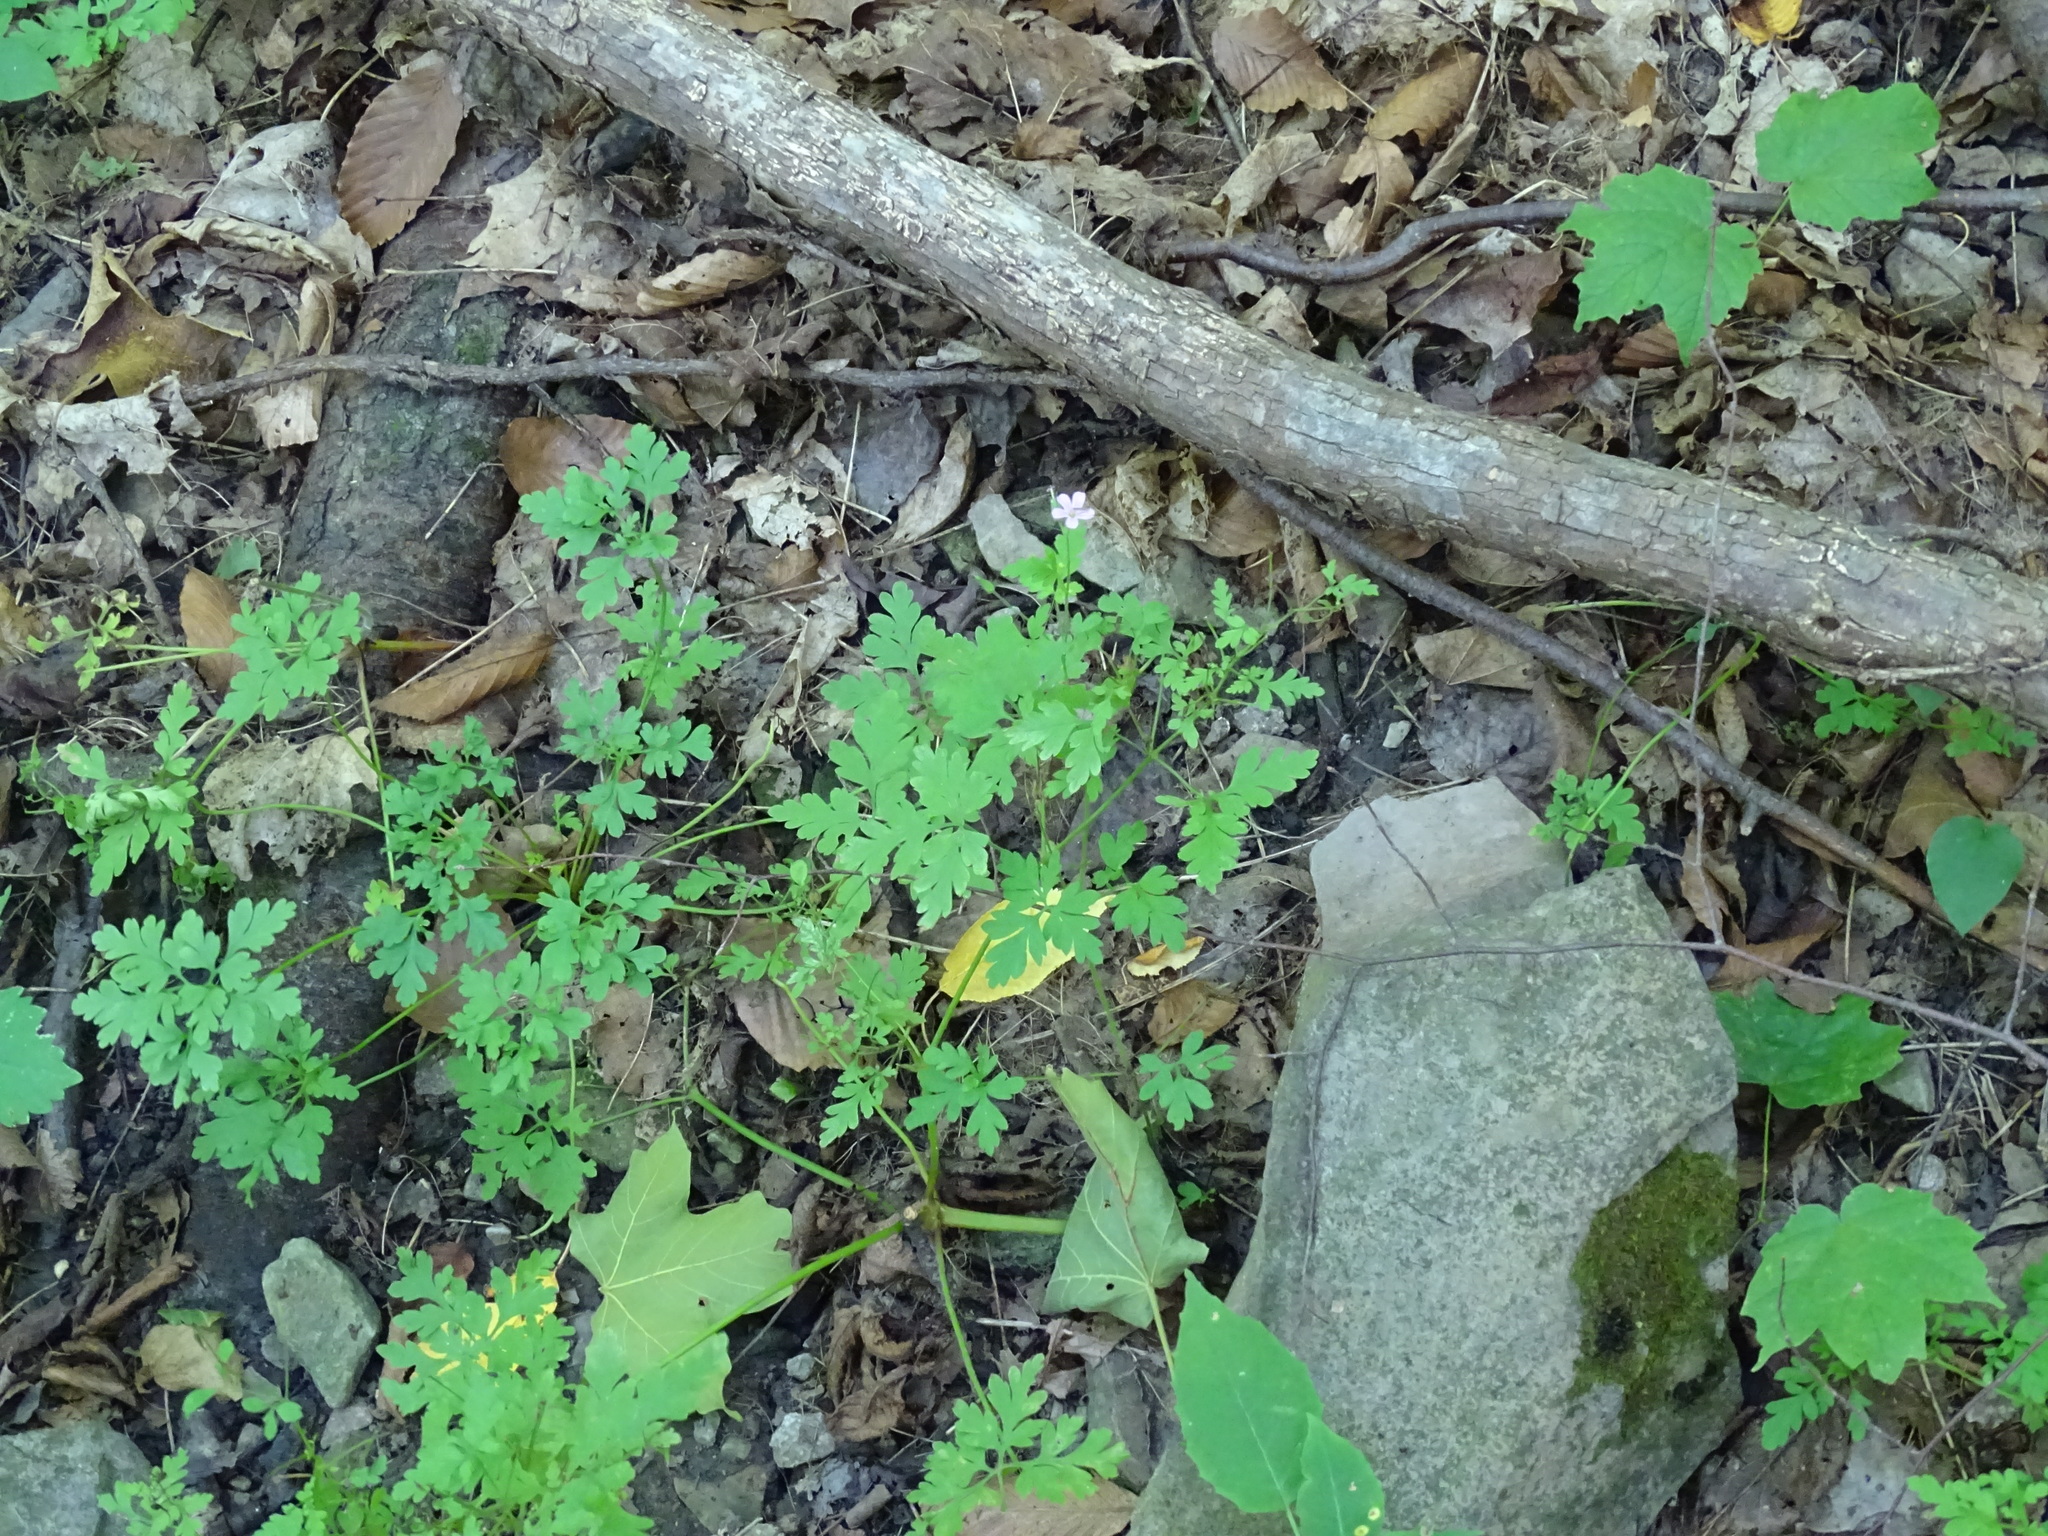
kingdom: Plantae
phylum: Tracheophyta
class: Magnoliopsida
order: Geraniales
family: Geraniaceae
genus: Geranium
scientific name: Geranium robertianum
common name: Herb-robert
